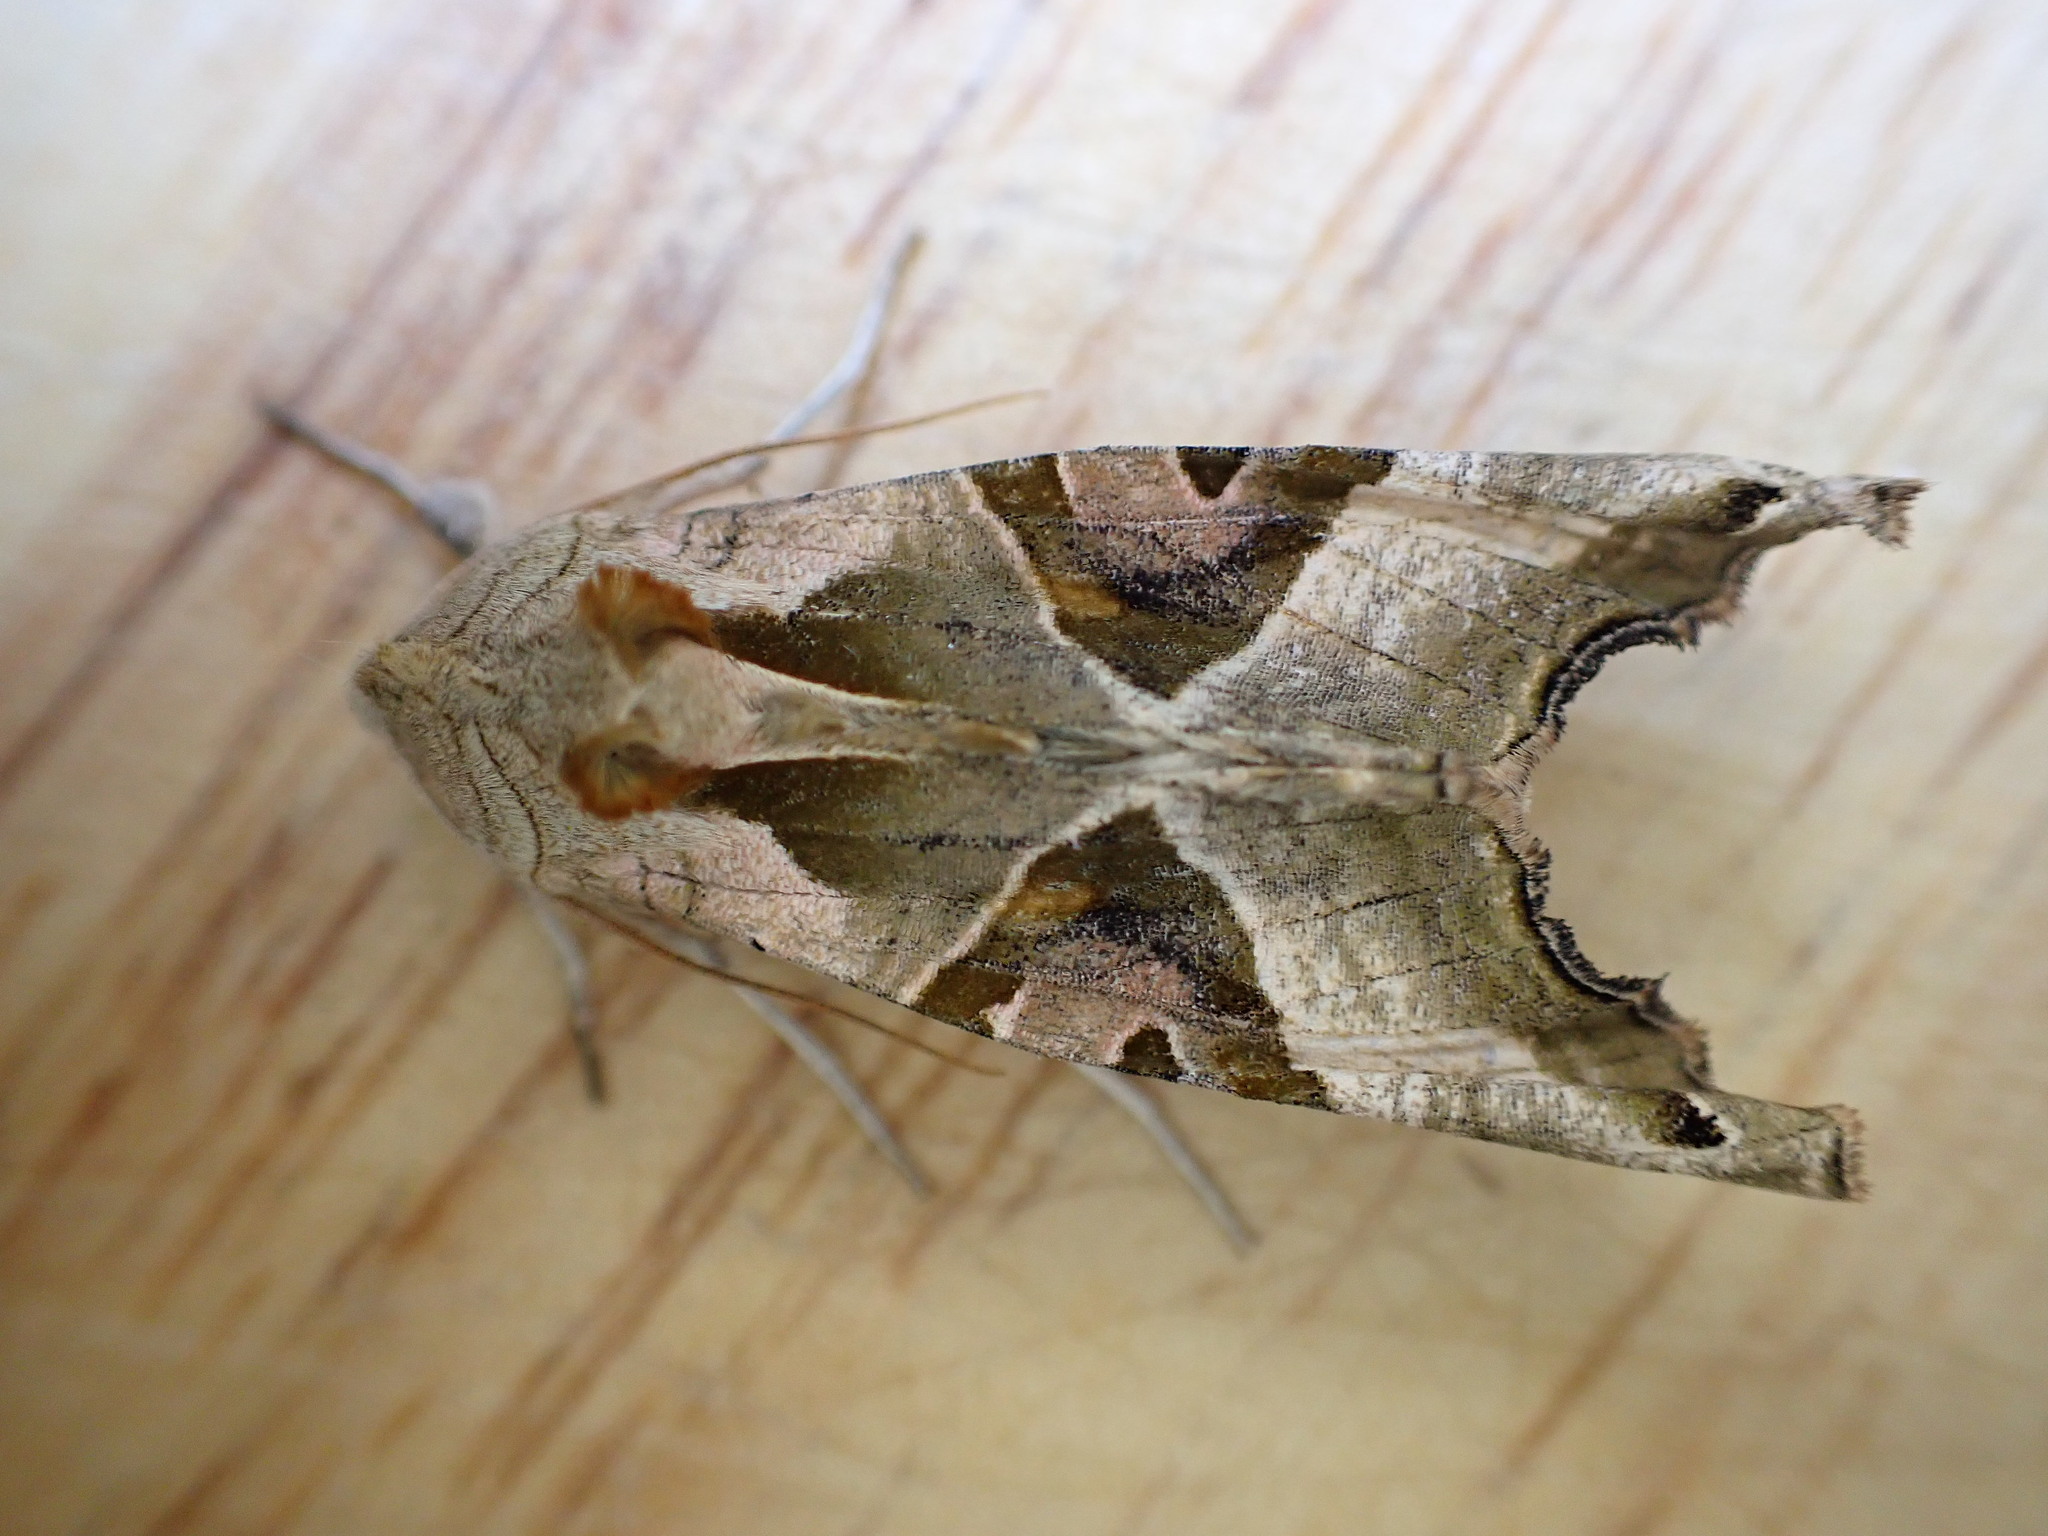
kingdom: Animalia
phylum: Arthropoda
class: Insecta
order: Lepidoptera
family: Noctuidae
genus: Phlogophora
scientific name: Phlogophora meticulosa
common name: Angle shades
